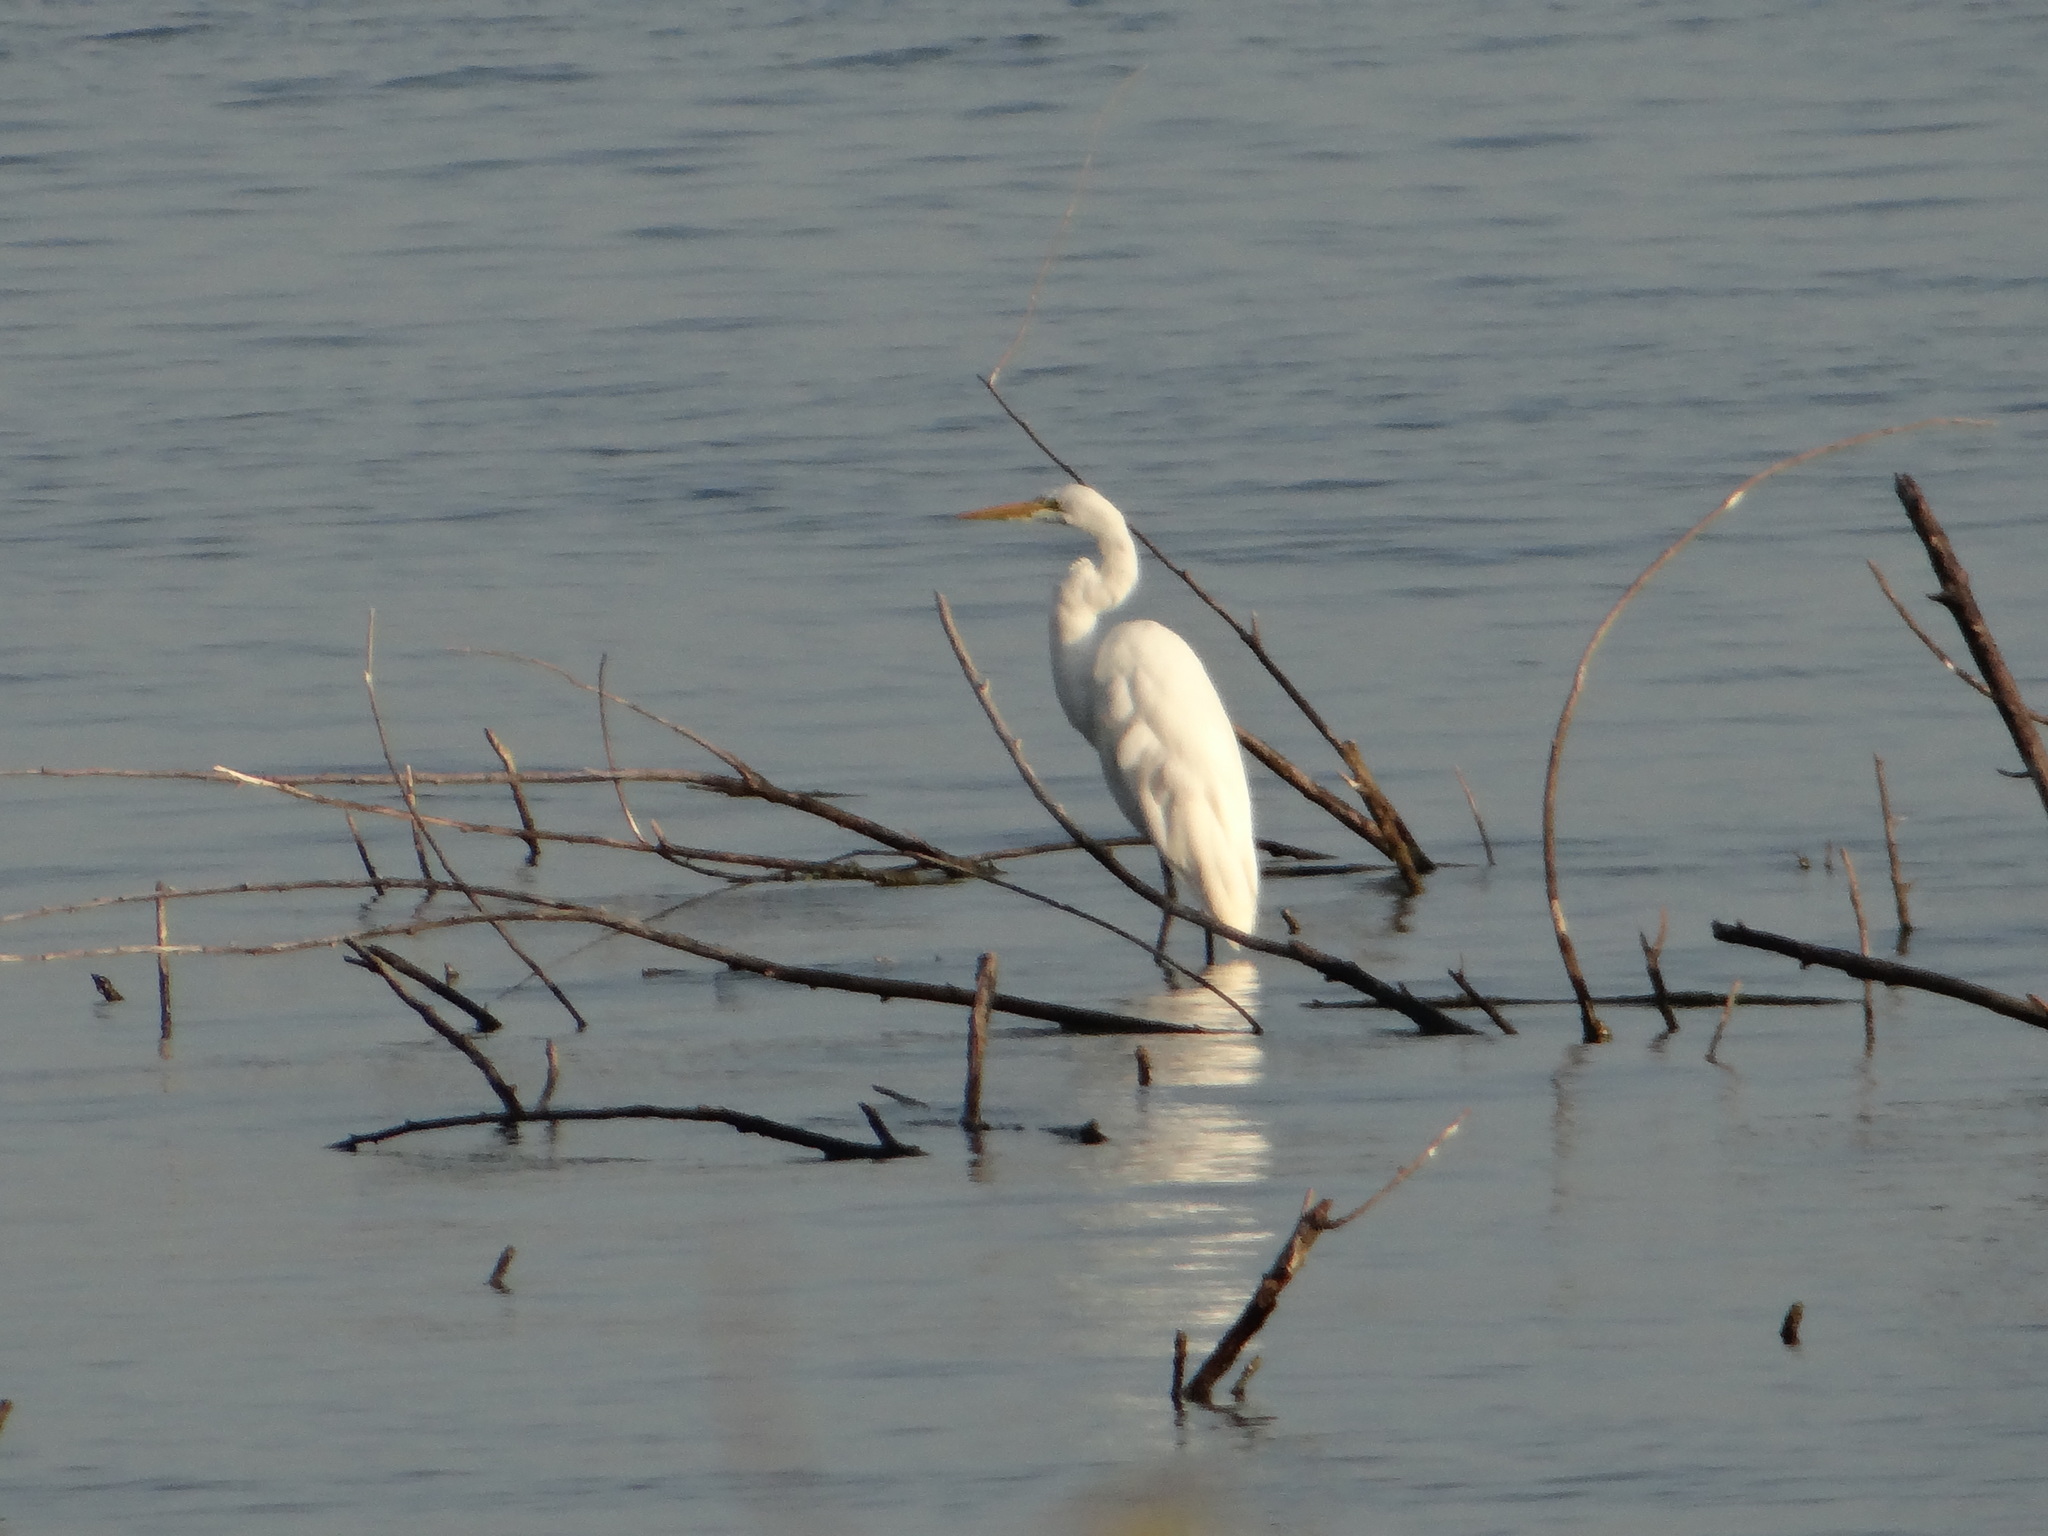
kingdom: Animalia
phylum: Chordata
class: Aves
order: Pelecaniformes
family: Ardeidae
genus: Ardea
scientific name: Ardea alba
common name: Great egret
